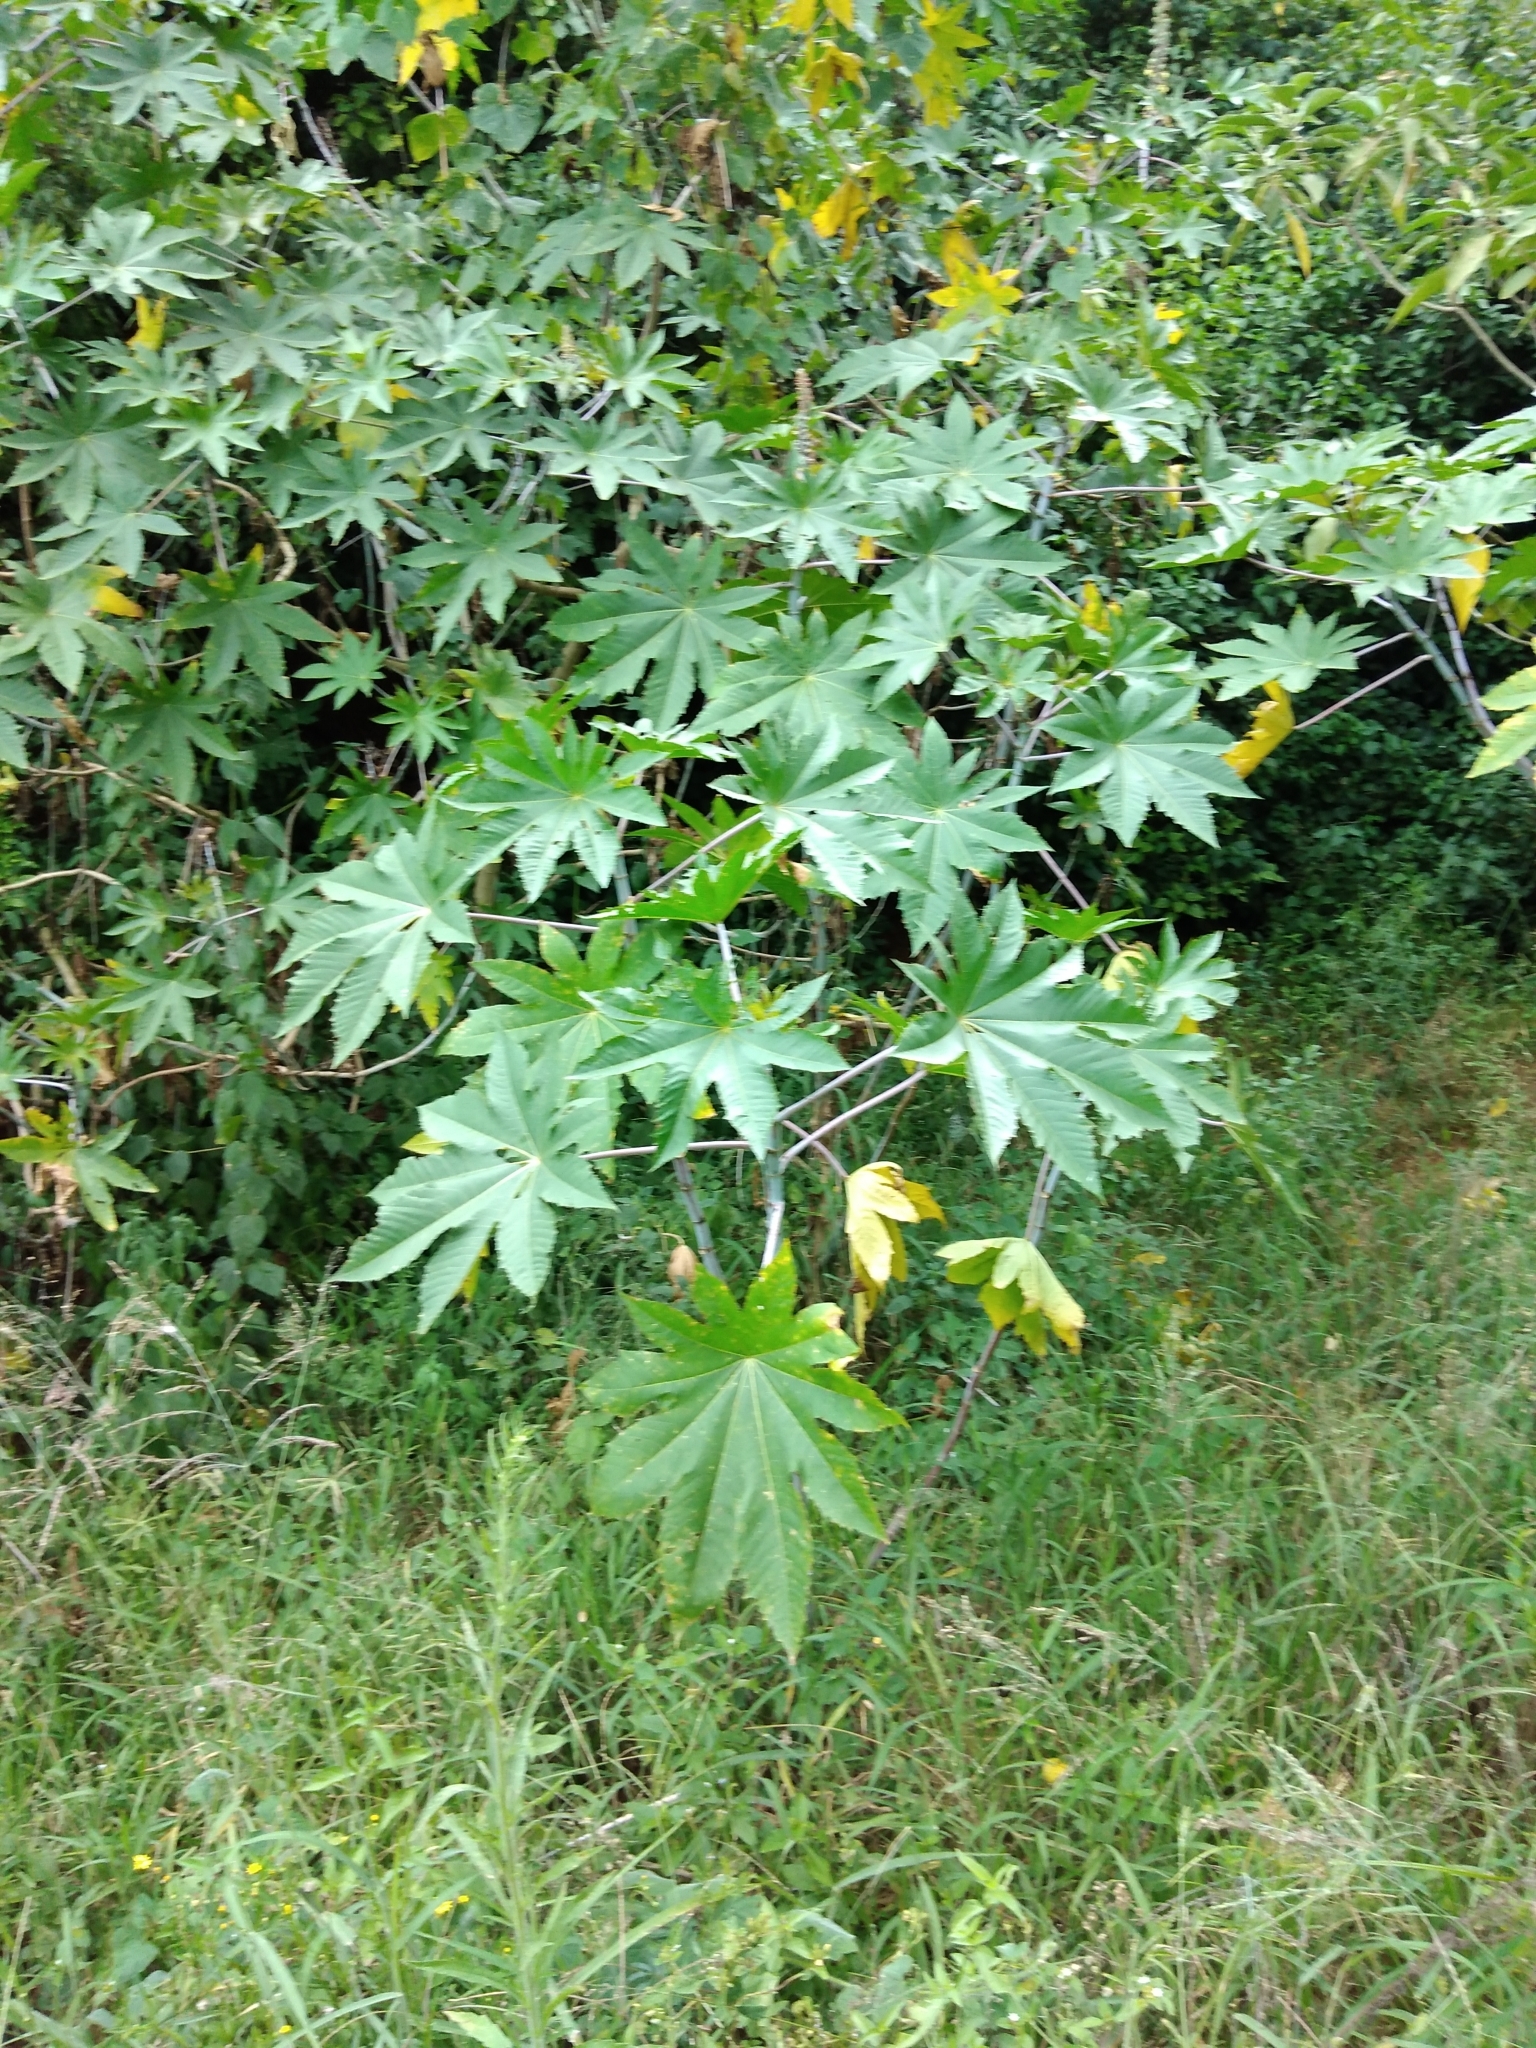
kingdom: Plantae
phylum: Tracheophyta
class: Magnoliopsida
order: Malpighiales
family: Euphorbiaceae
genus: Ricinus
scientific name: Ricinus communis
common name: Castor-oil-plant
